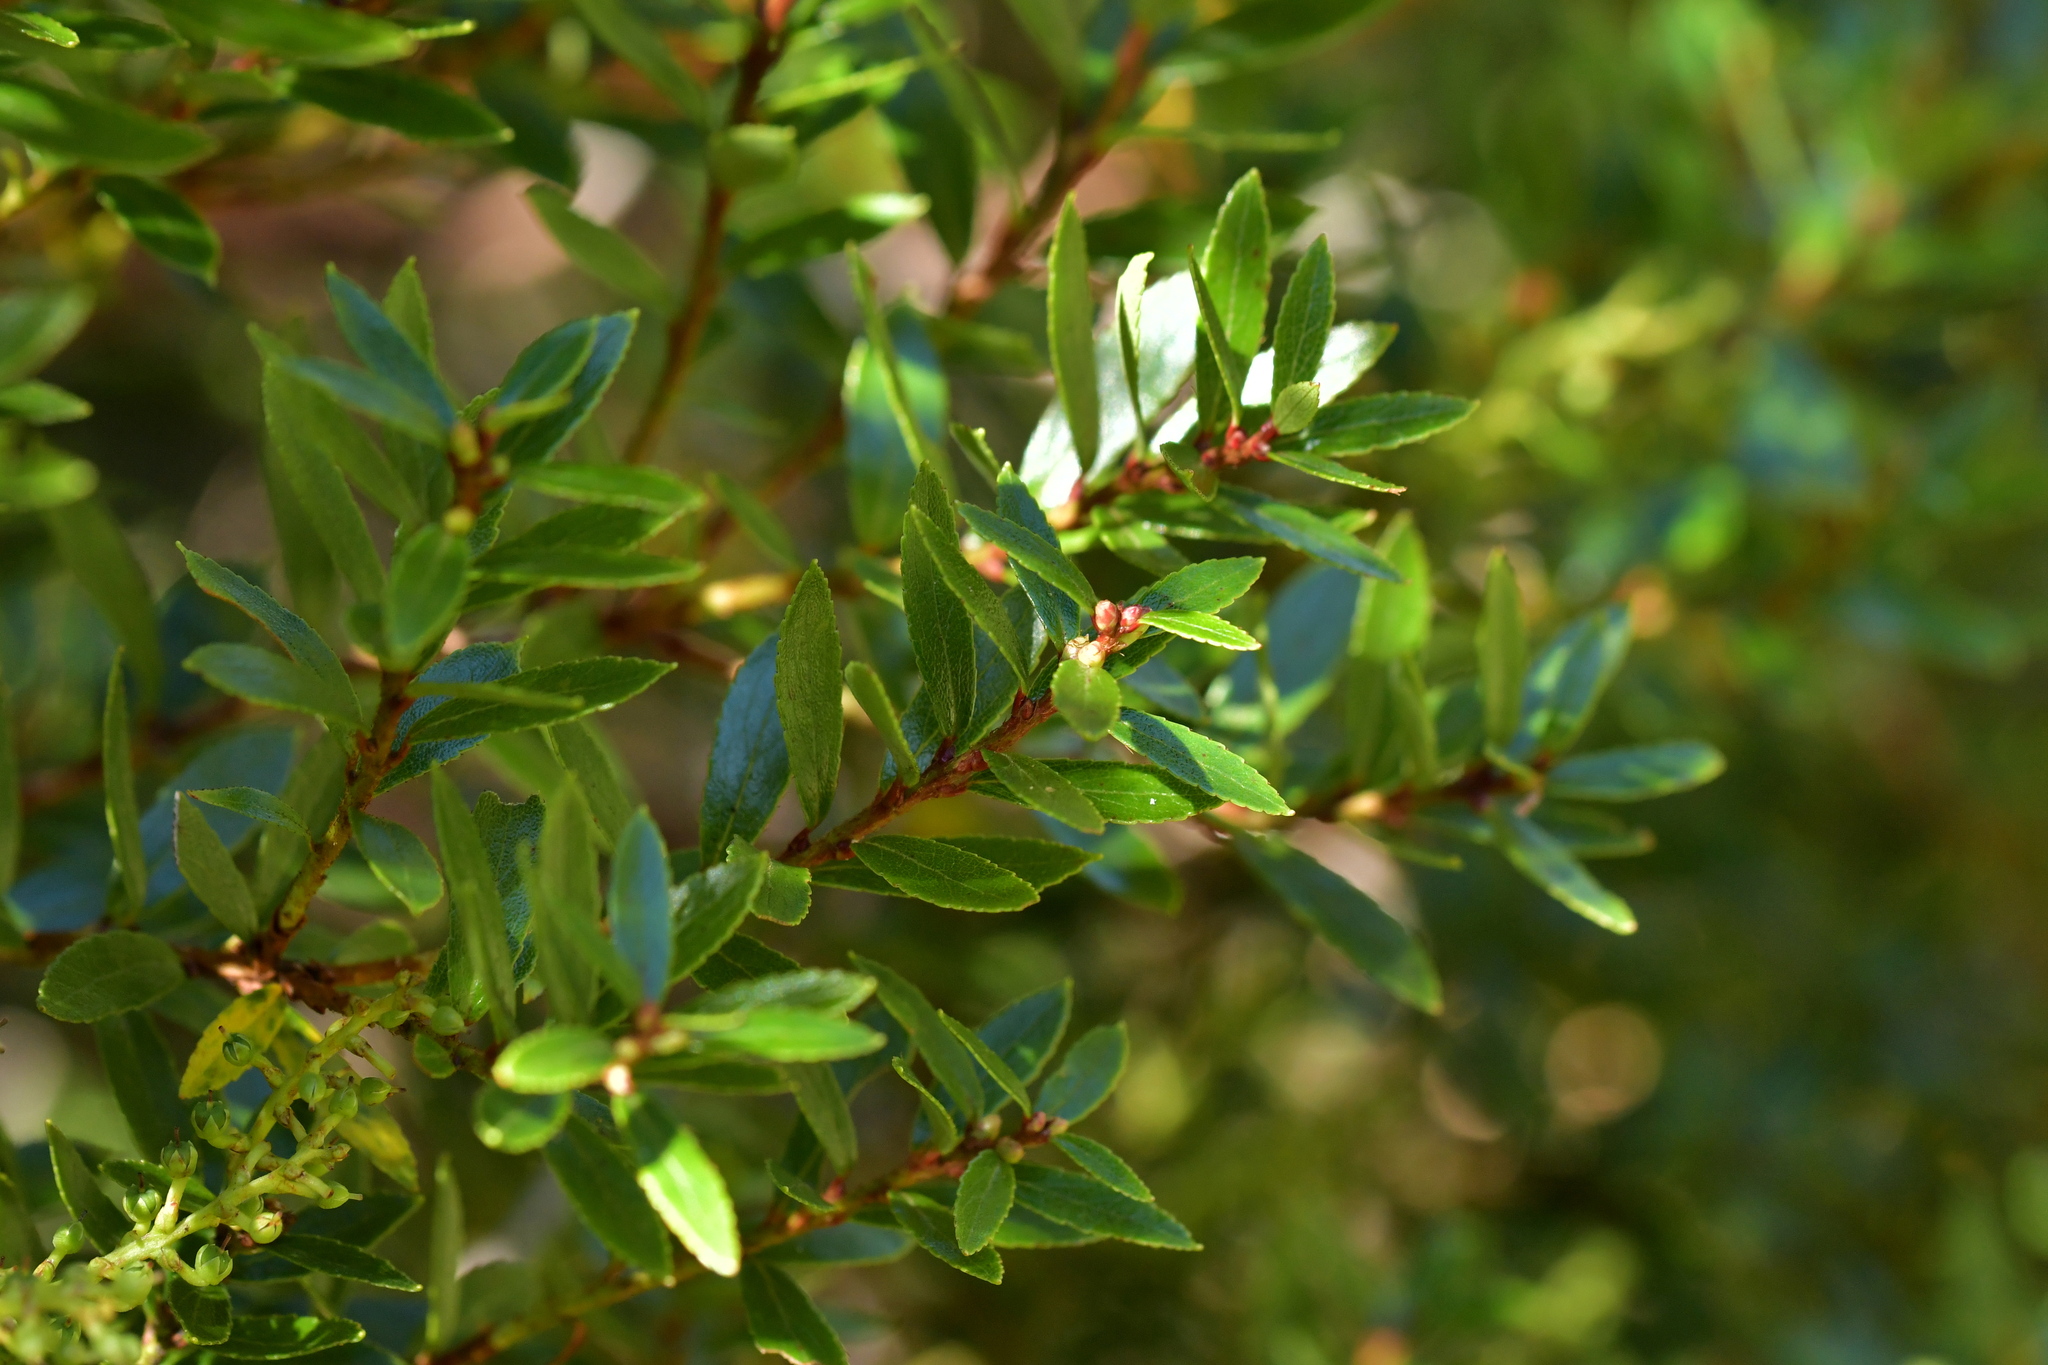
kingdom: Plantae
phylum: Tracheophyta
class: Magnoliopsida
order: Ericales
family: Ericaceae
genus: Gaultheria
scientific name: Gaultheria rupestris
